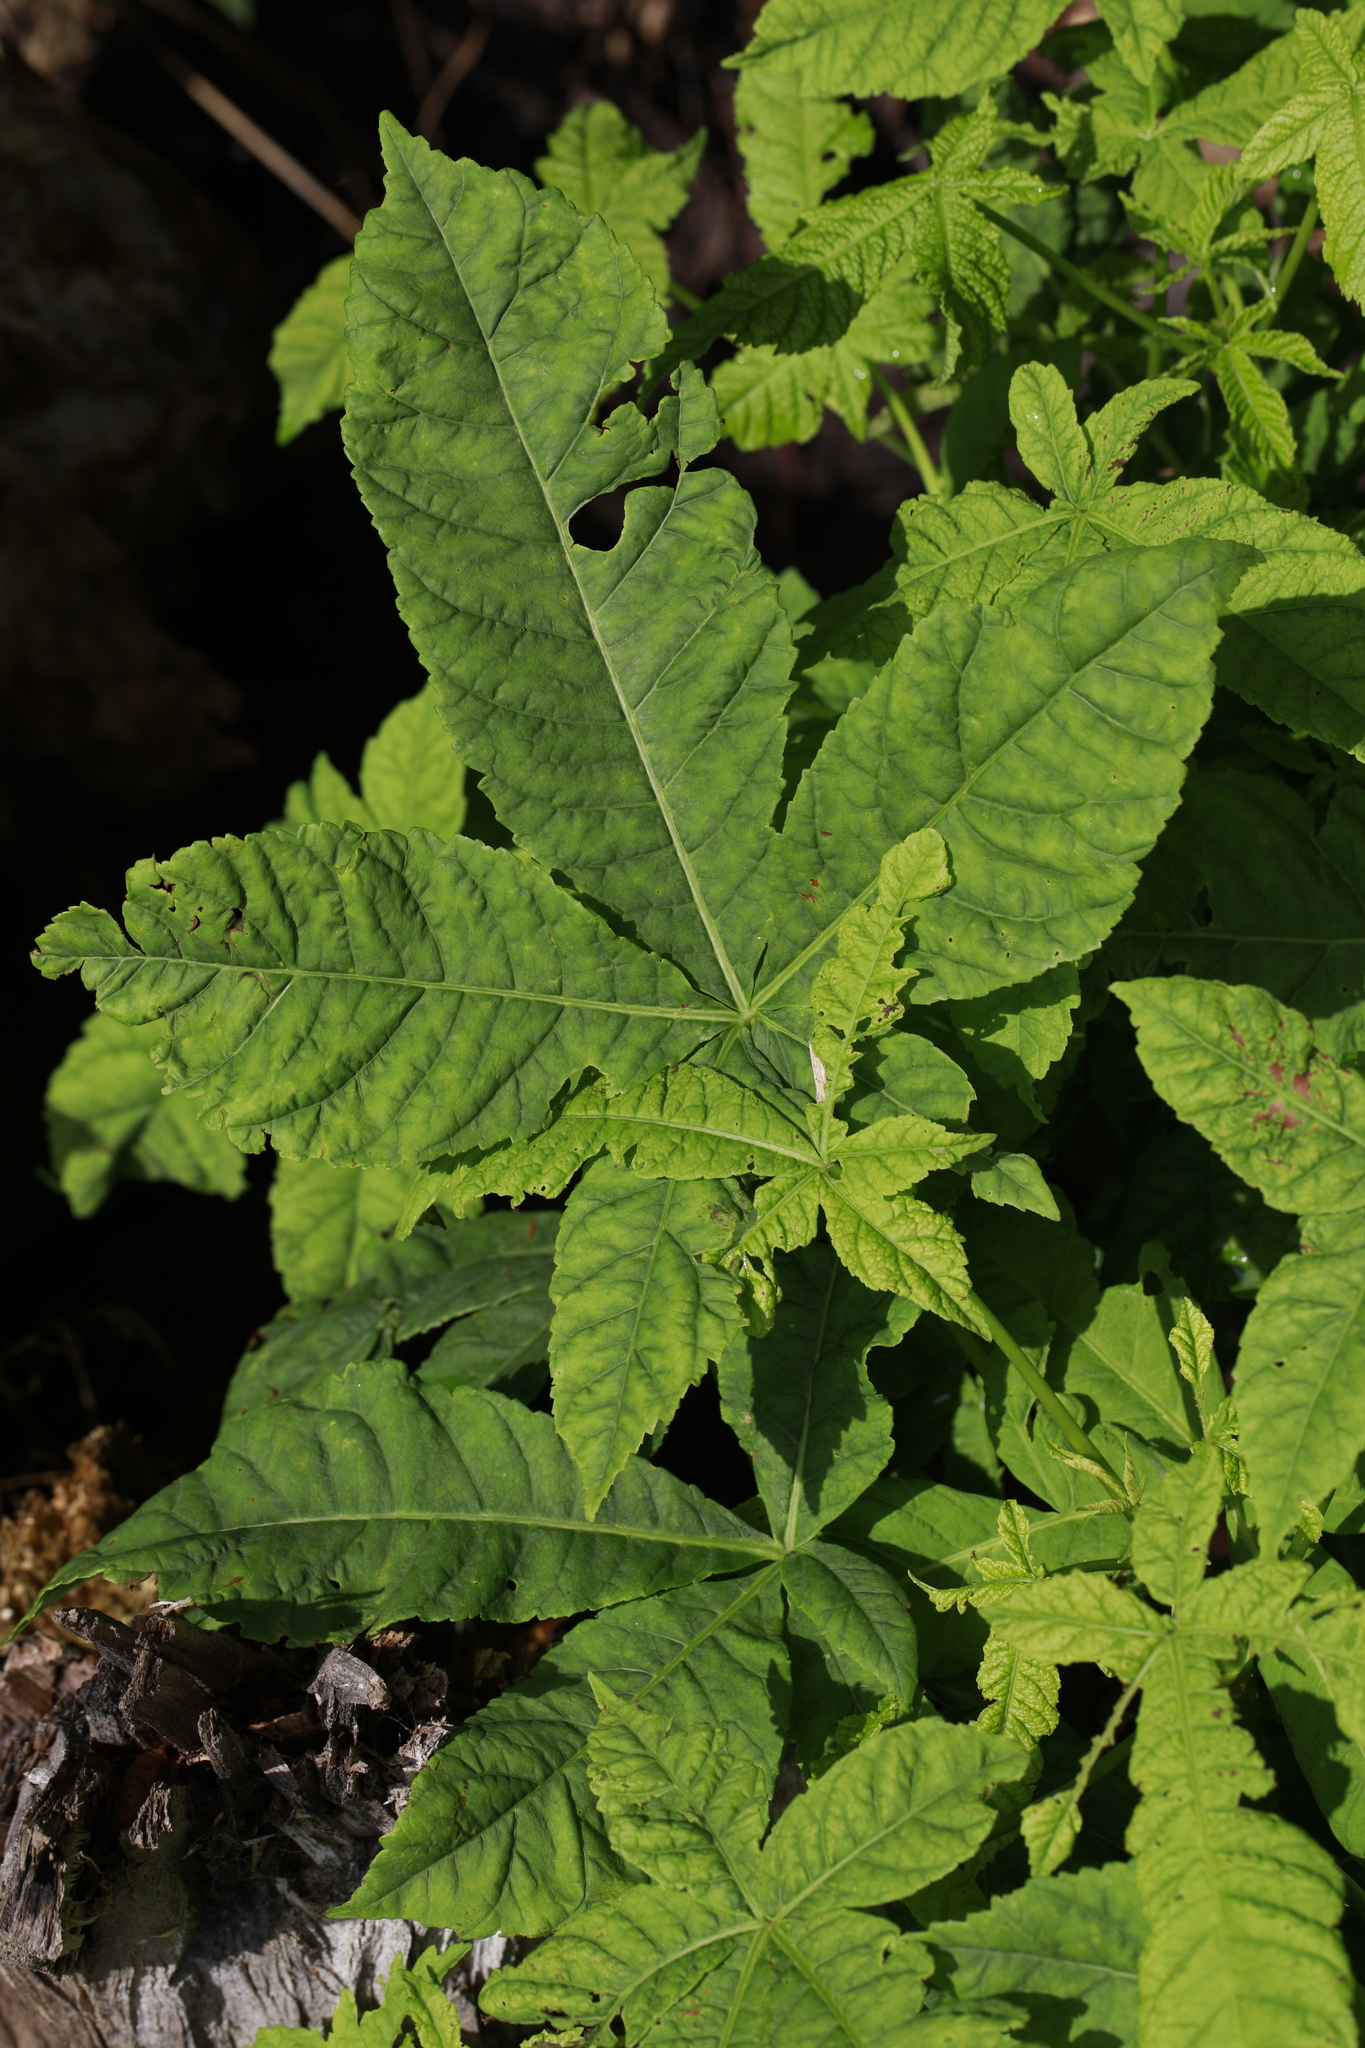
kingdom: Plantae
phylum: Tracheophyta
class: Magnoliopsida
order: Sapindales
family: Sapindaceae
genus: Aesculus
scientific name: Aesculus hippocastanum
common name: Horse-chestnut
